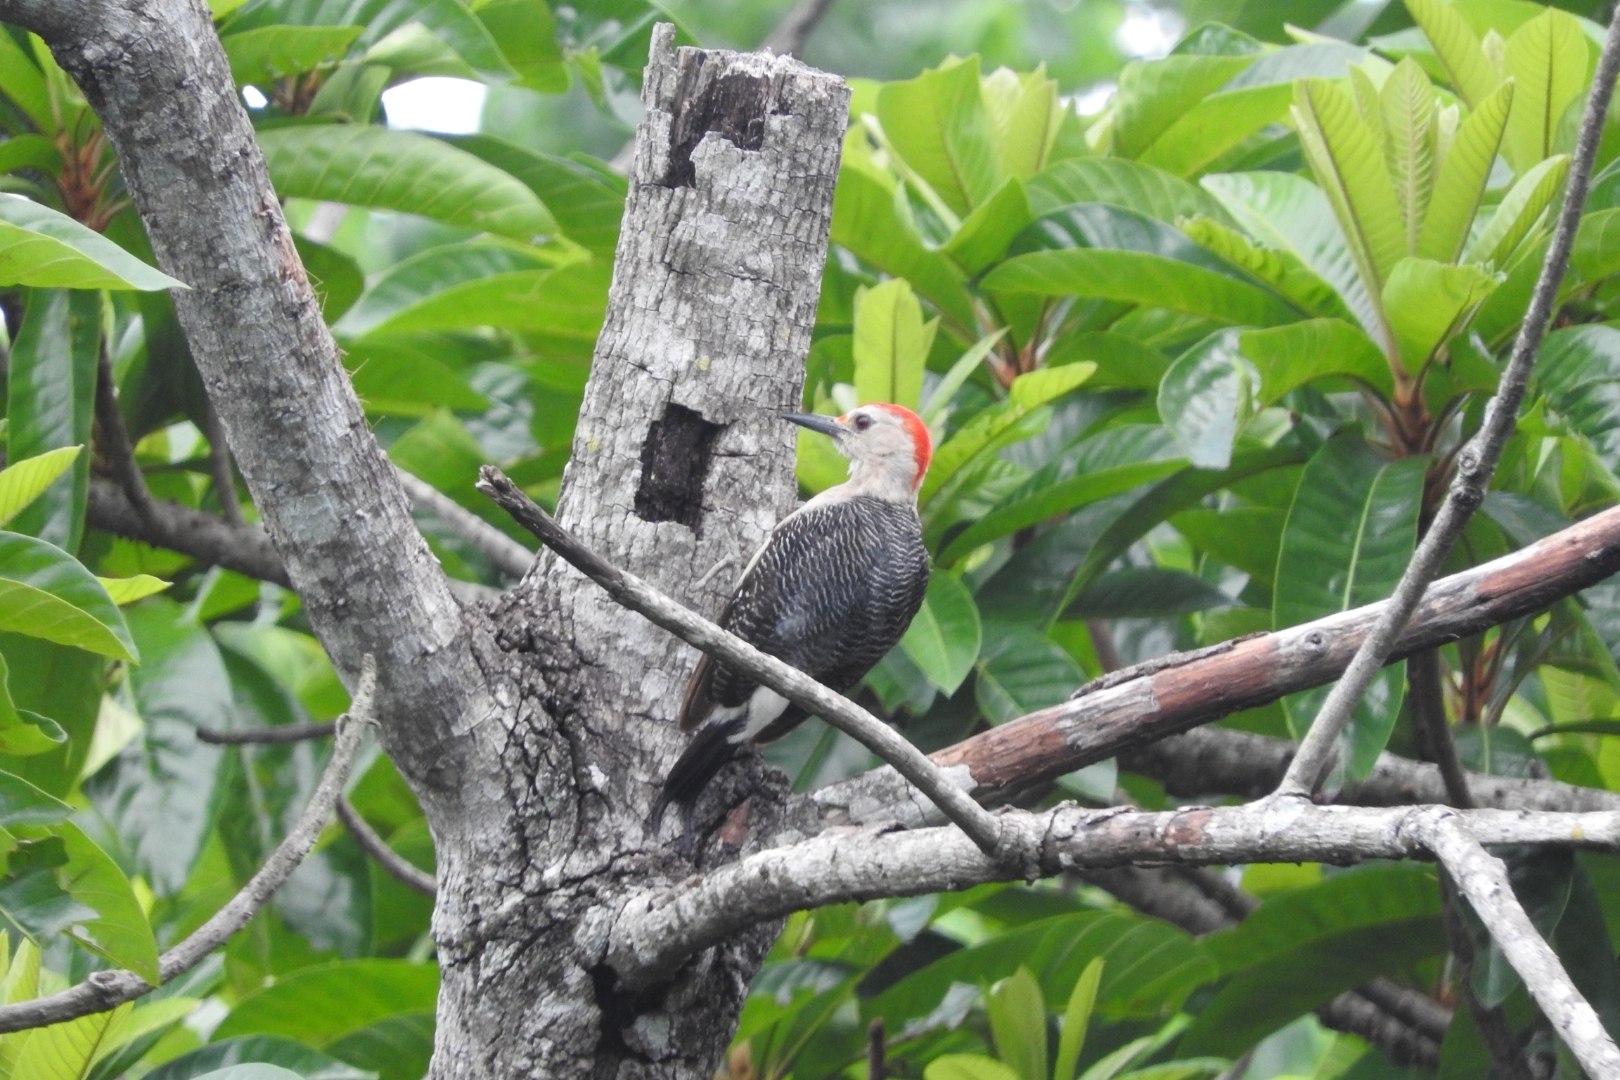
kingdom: Animalia
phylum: Chordata
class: Aves
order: Piciformes
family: Picidae
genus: Melanerpes
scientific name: Melanerpes aurifrons
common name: Golden-fronted woodpecker
